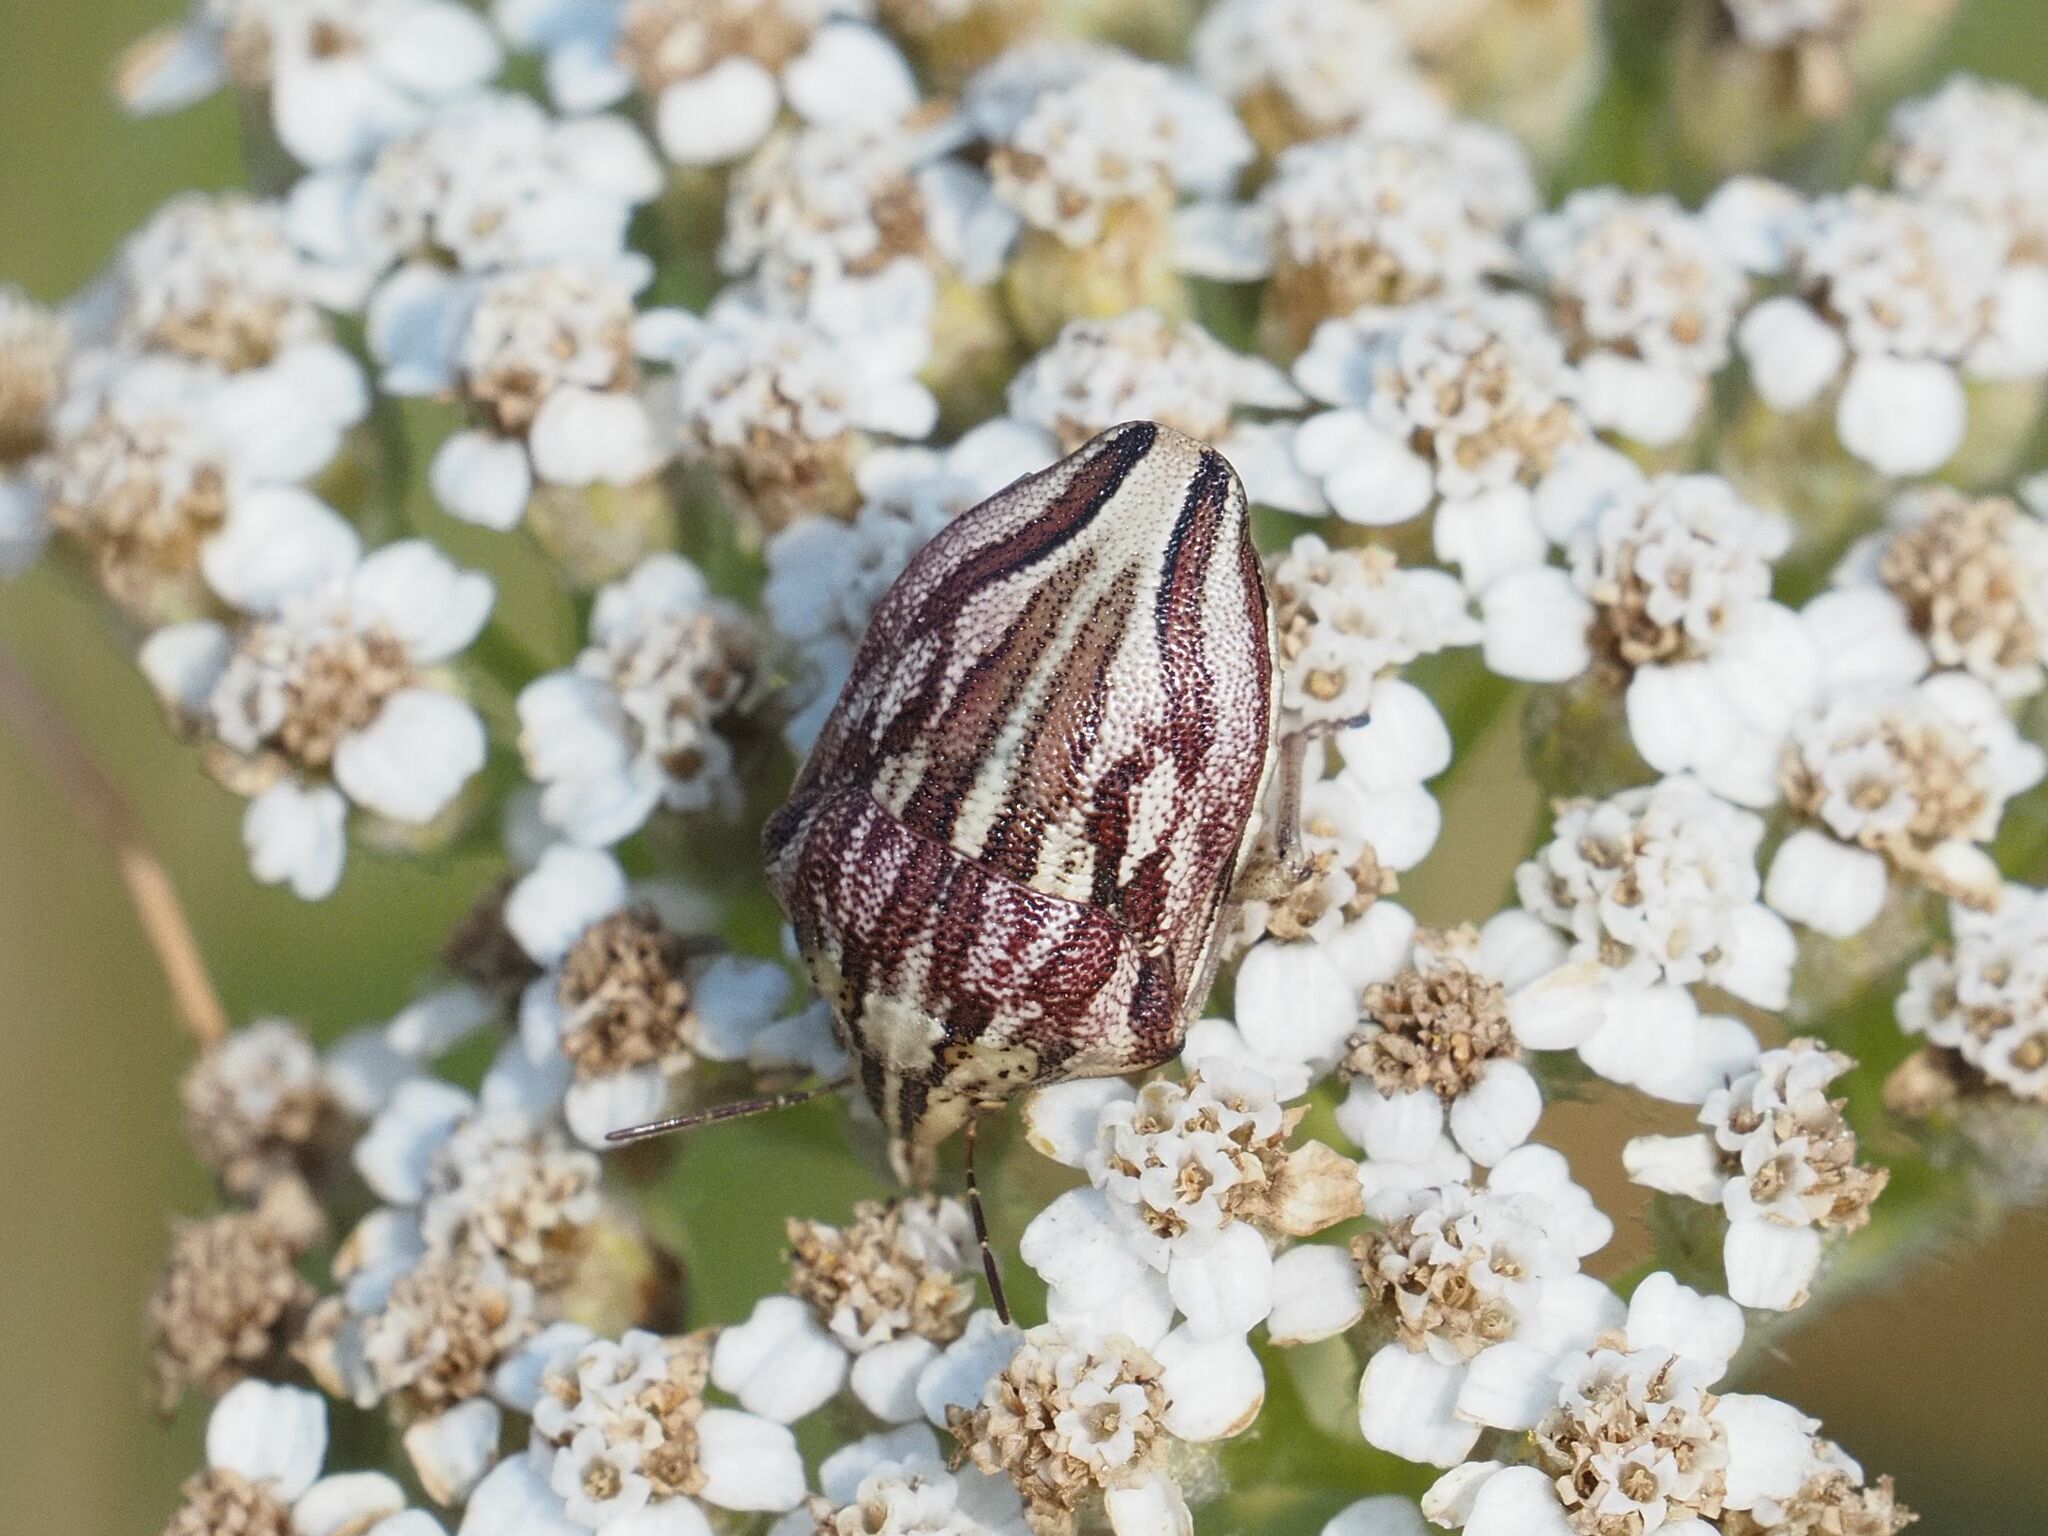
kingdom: Animalia
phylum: Arthropoda
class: Insecta
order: Hemiptera
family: Scutelleridae
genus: Odontotarsus
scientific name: Odontotarsus purpureolineatus
